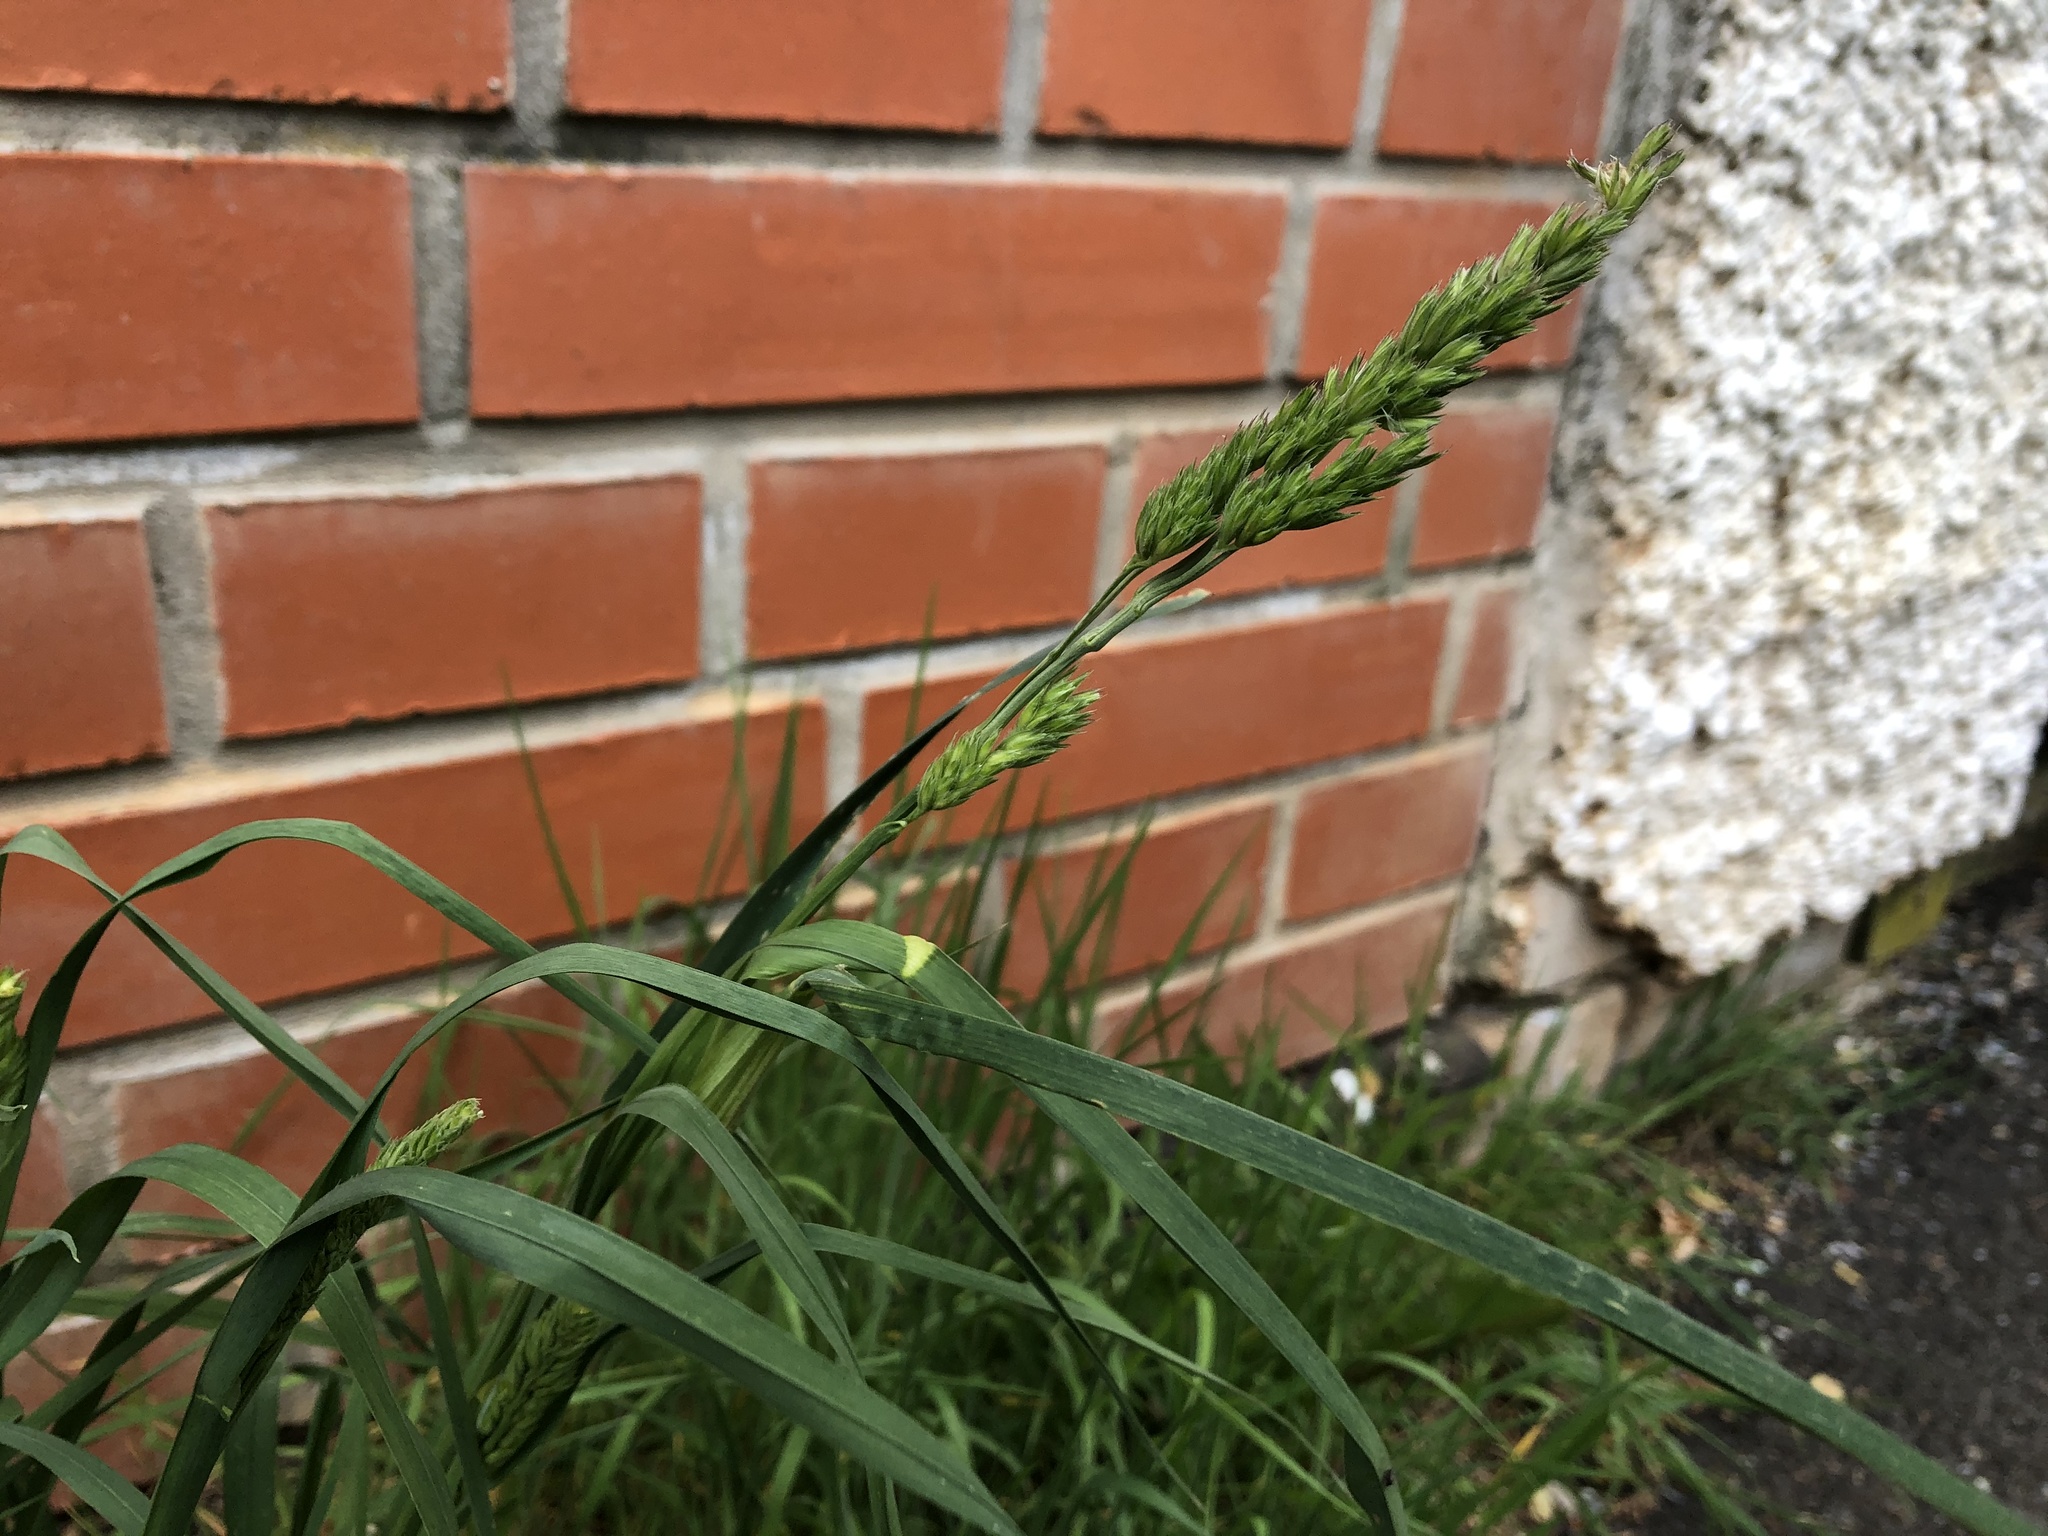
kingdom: Plantae
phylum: Tracheophyta
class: Liliopsida
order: Poales
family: Poaceae
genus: Dactylis
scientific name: Dactylis glomerata
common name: Orchardgrass
